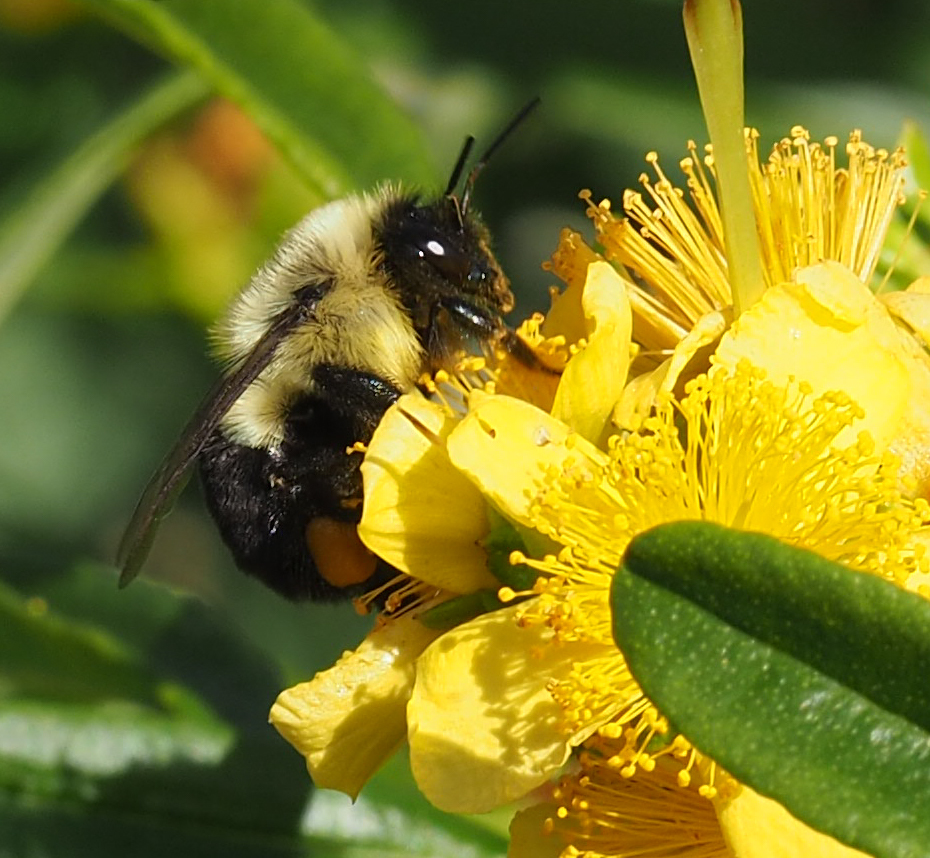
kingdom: Animalia
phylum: Arthropoda
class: Insecta
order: Hymenoptera
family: Apidae
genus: Bombus
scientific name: Bombus impatiens
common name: Common eastern bumble bee
